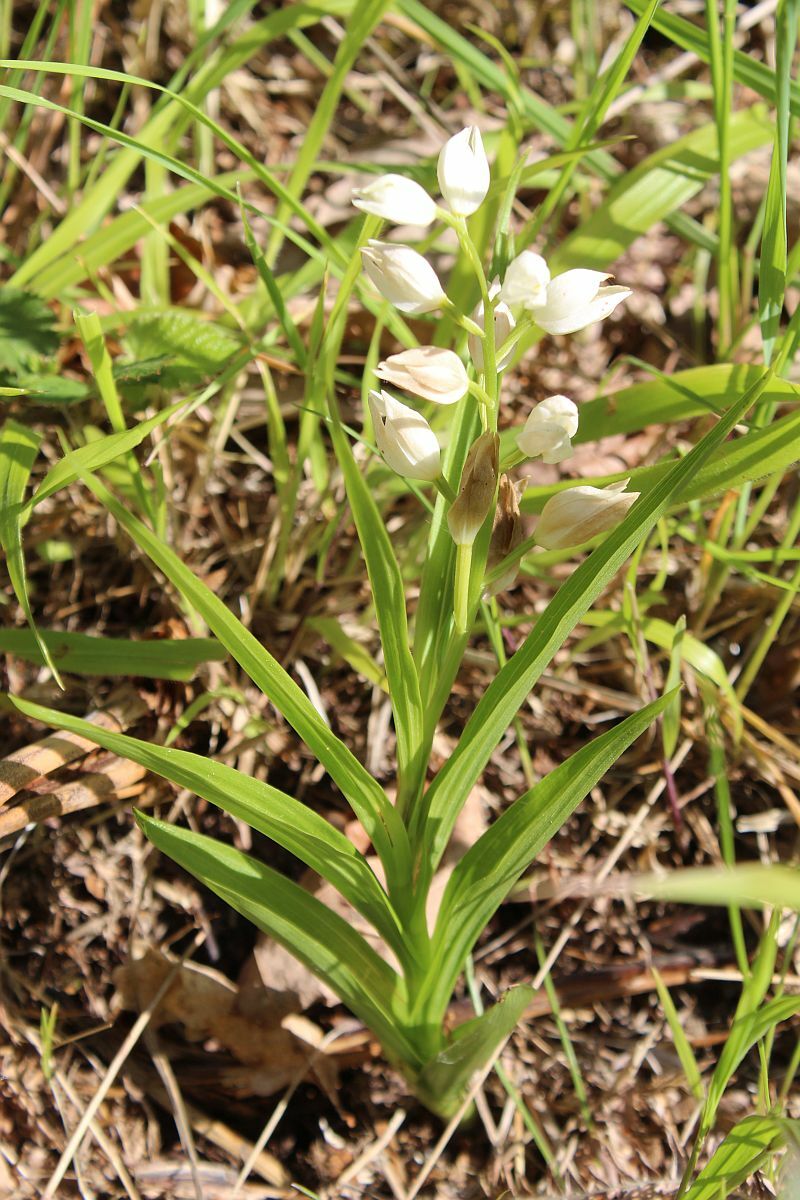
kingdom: Plantae
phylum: Tracheophyta
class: Liliopsida
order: Asparagales
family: Orchidaceae
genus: Cephalanthera
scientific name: Cephalanthera longifolia
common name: Narrow-leaved helleborine
